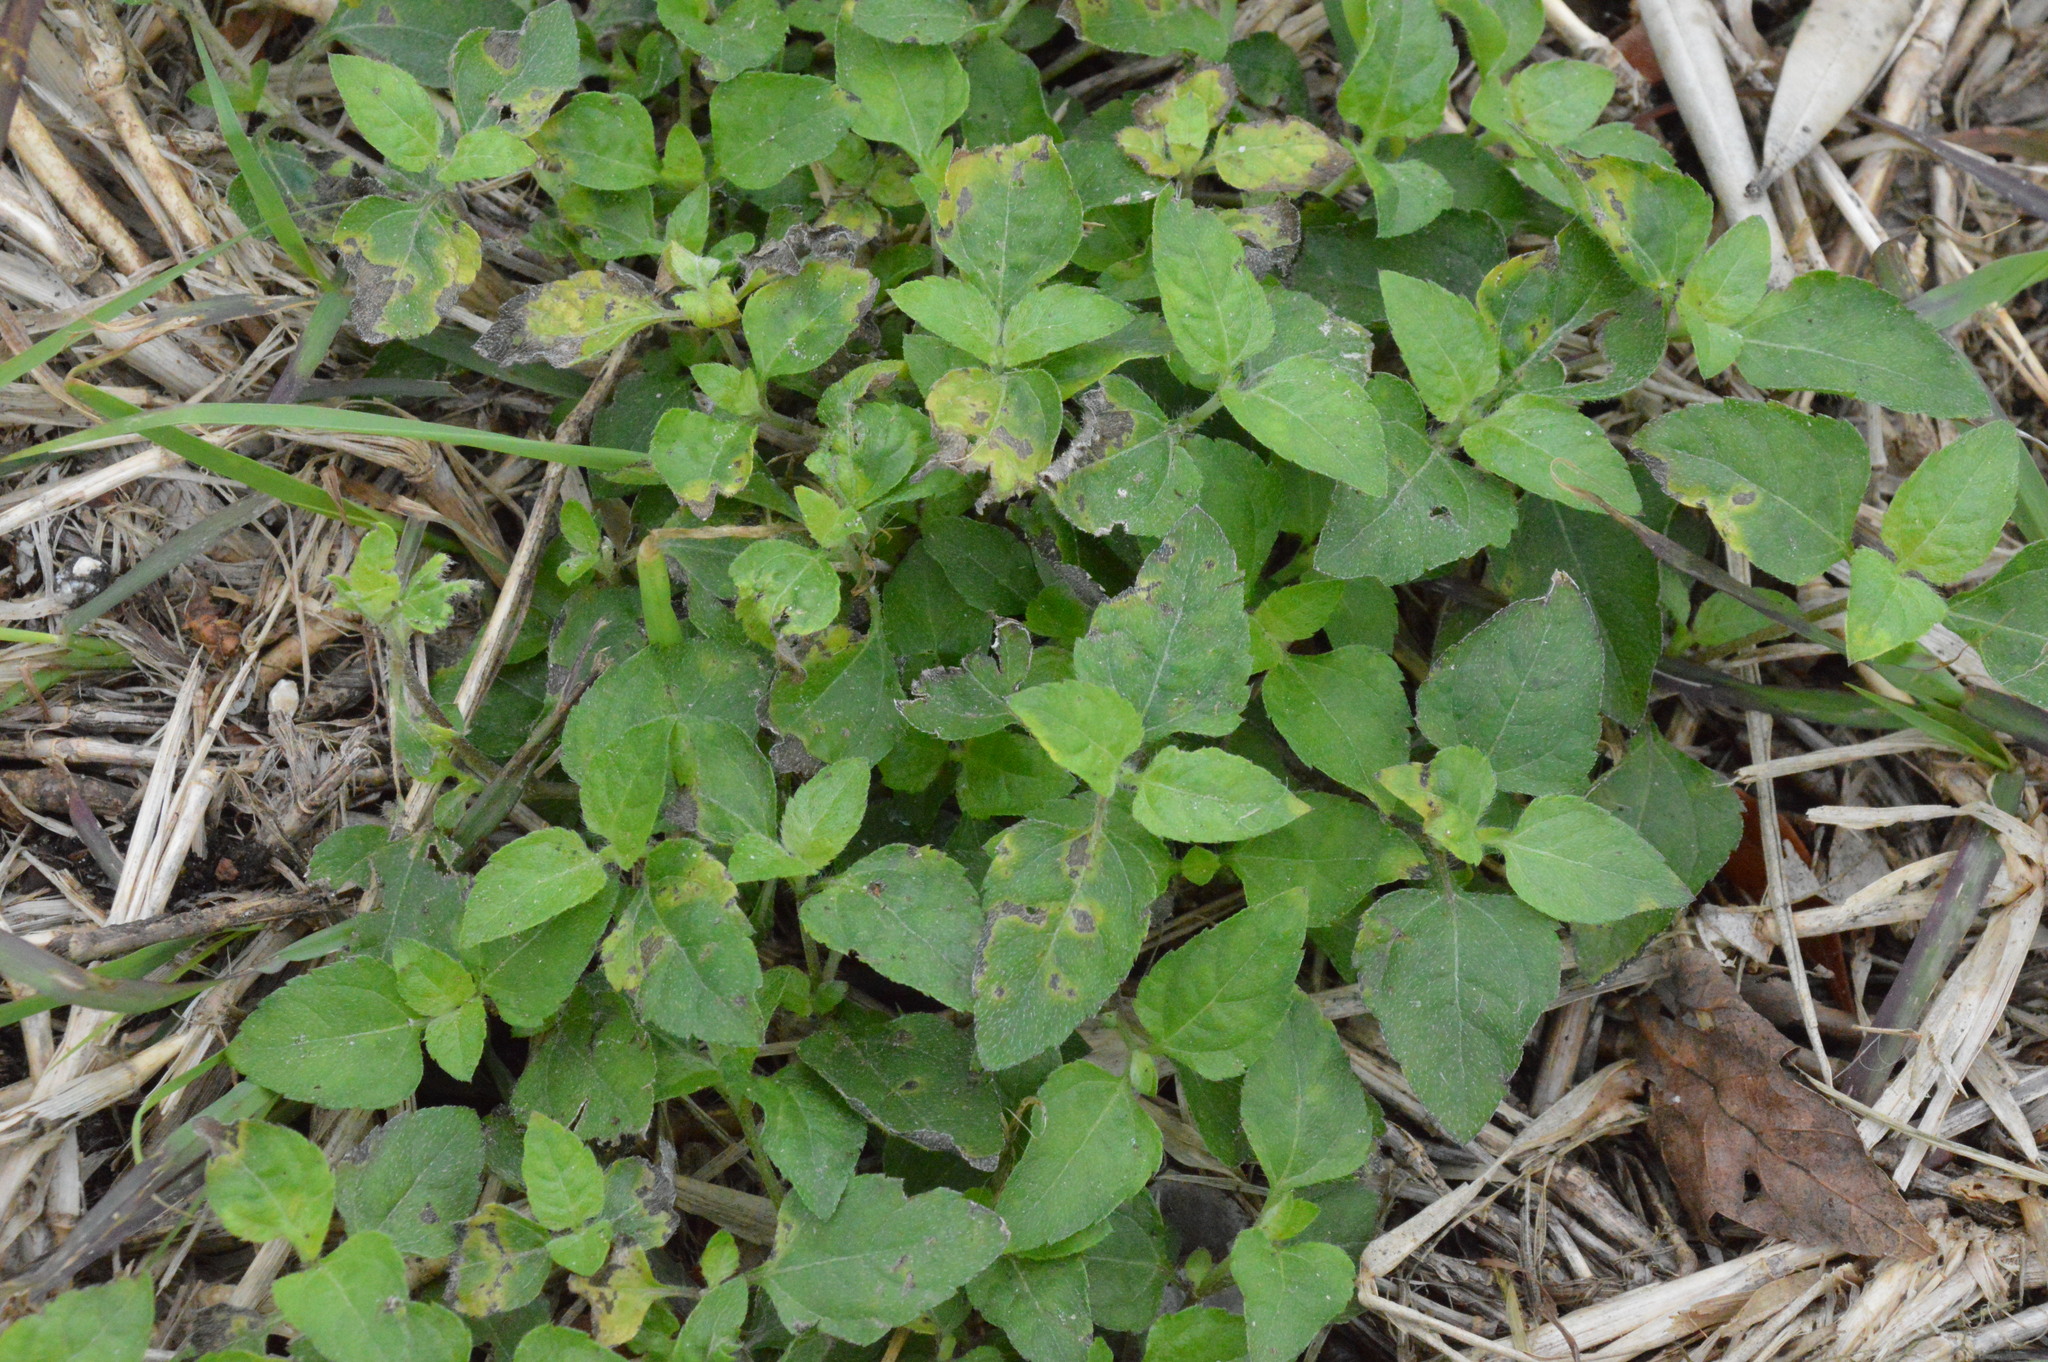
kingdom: Plantae
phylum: Tracheophyta
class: Magnoliopsida
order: Asterales
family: Asteraceae
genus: Calyptocarpus
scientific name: Calyptocarpus vialis
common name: Straggler daisy
